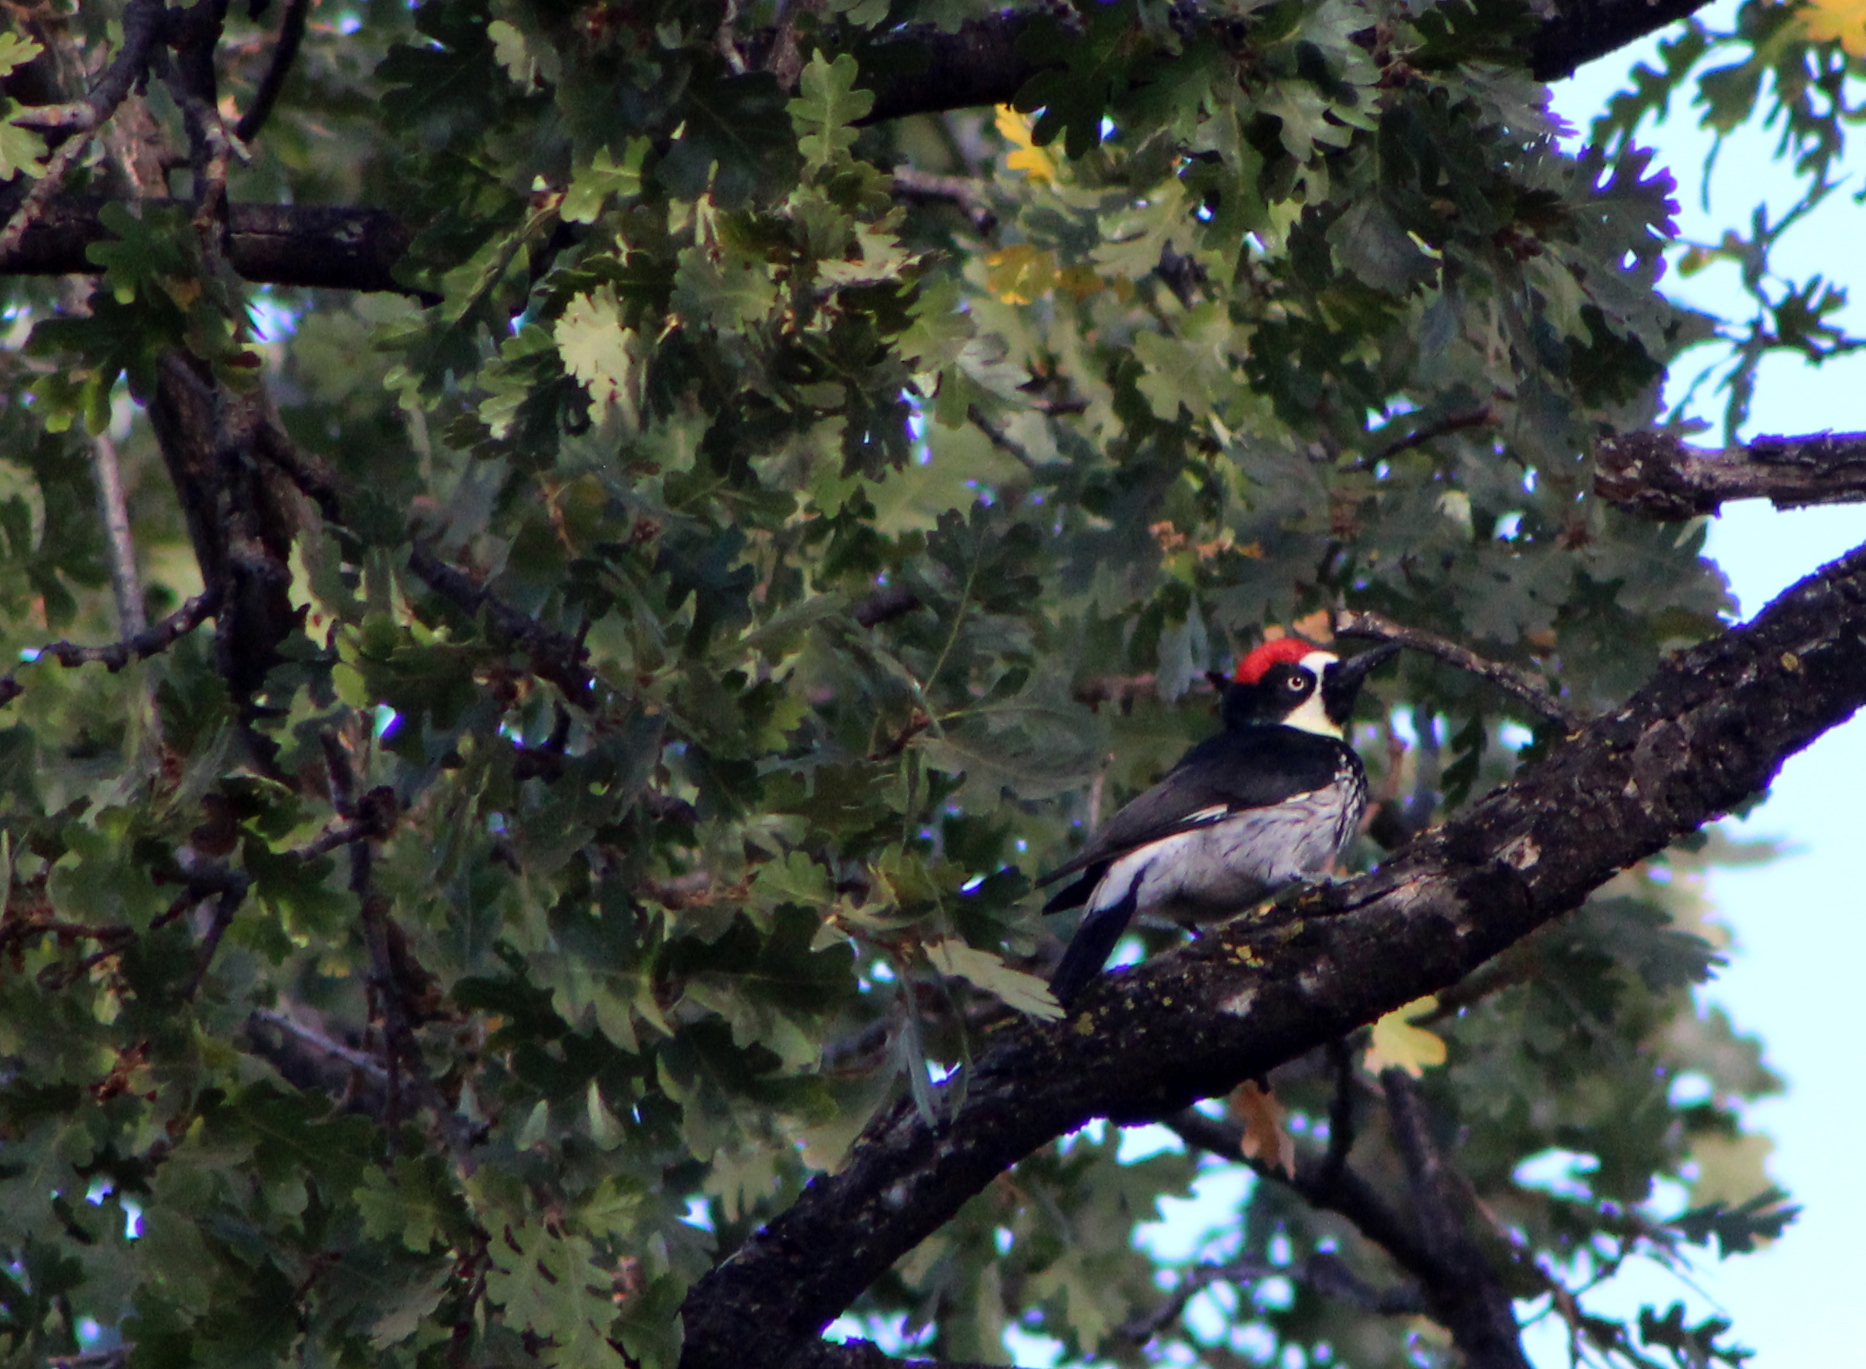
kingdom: Animalia
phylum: Chordata
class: Aves
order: Piciformes
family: Picidae
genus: Melanerpes
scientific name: Melanerpes formicivorus
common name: Acorn woodpecker
